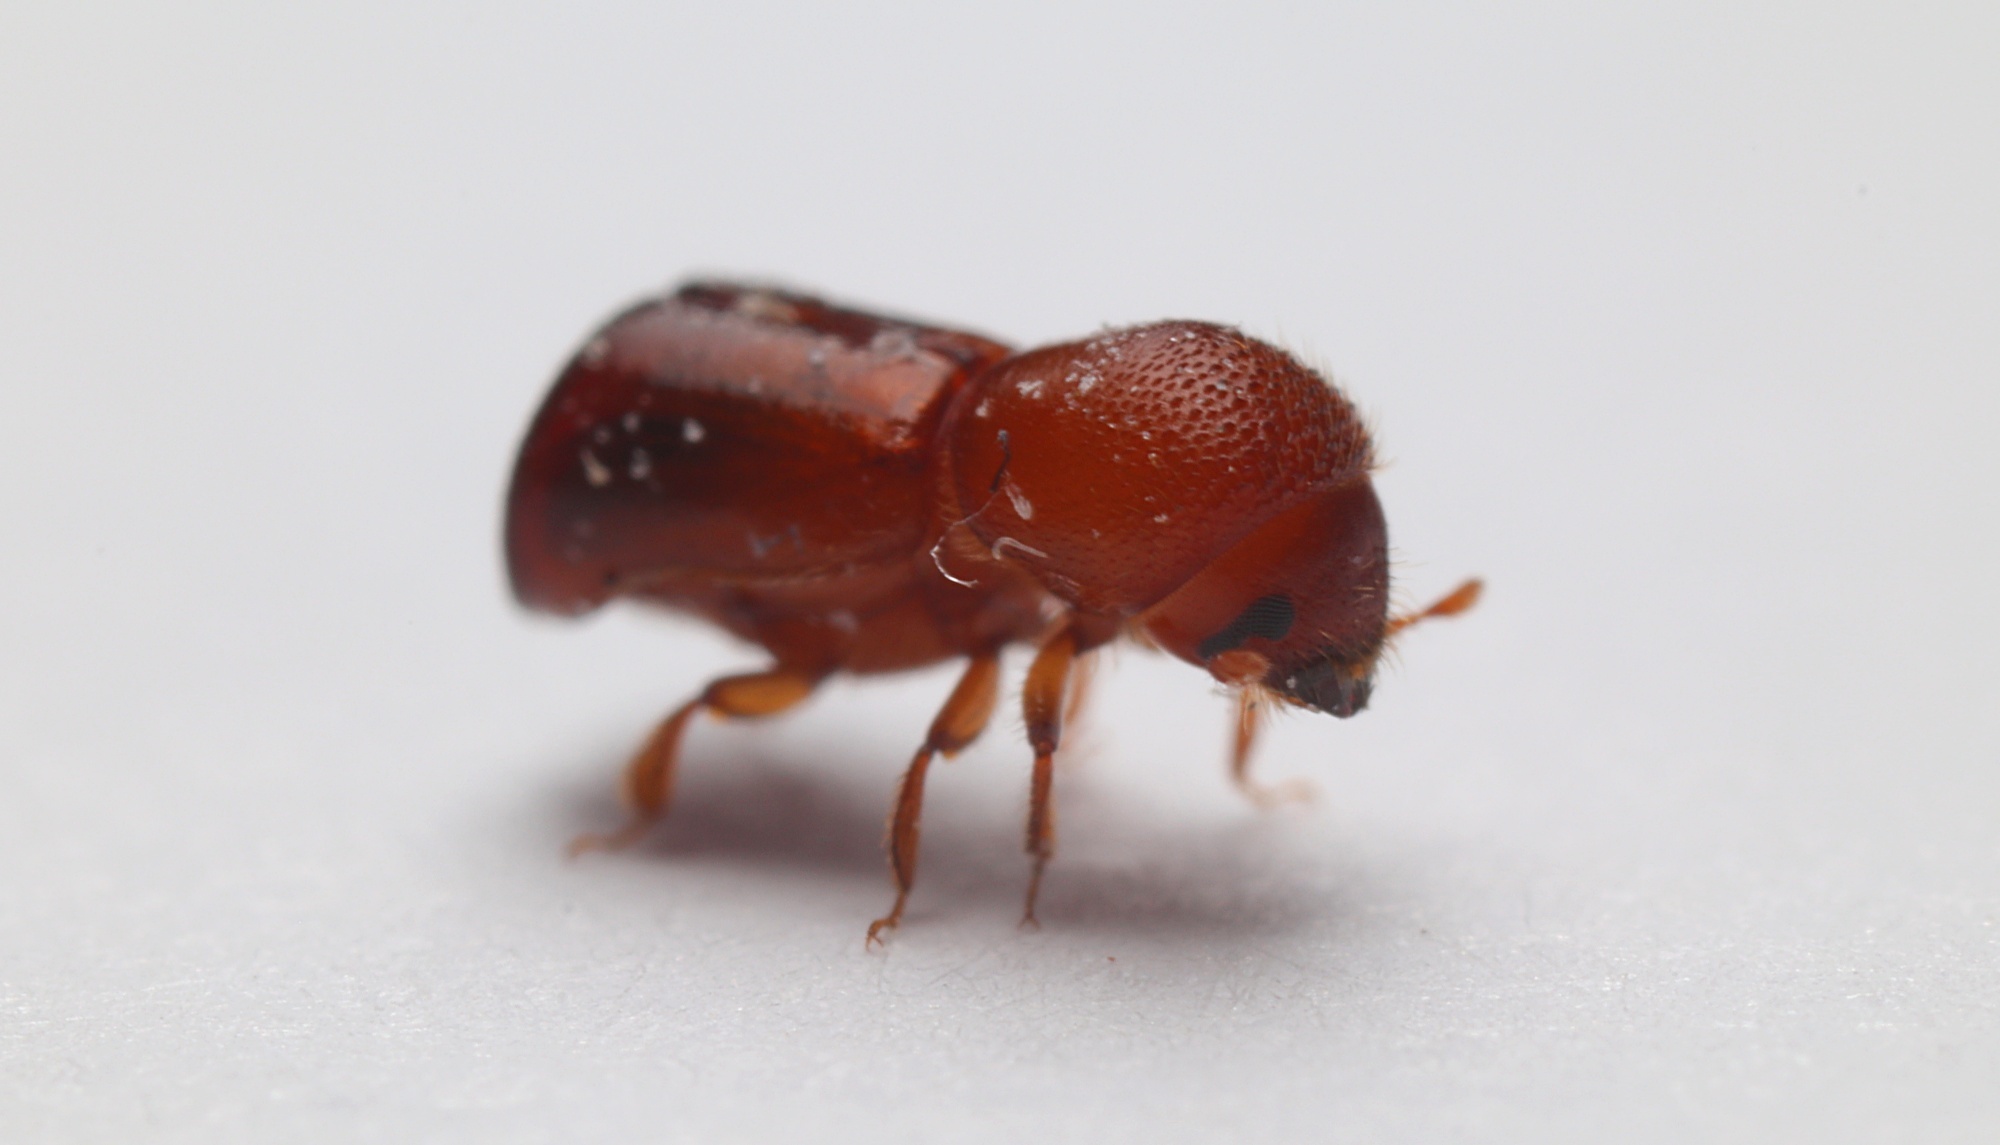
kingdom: Animalia
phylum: Arthropoda
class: Insecta
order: Coleoptera
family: Curculionidae
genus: Amasa
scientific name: Amasa truncatus
